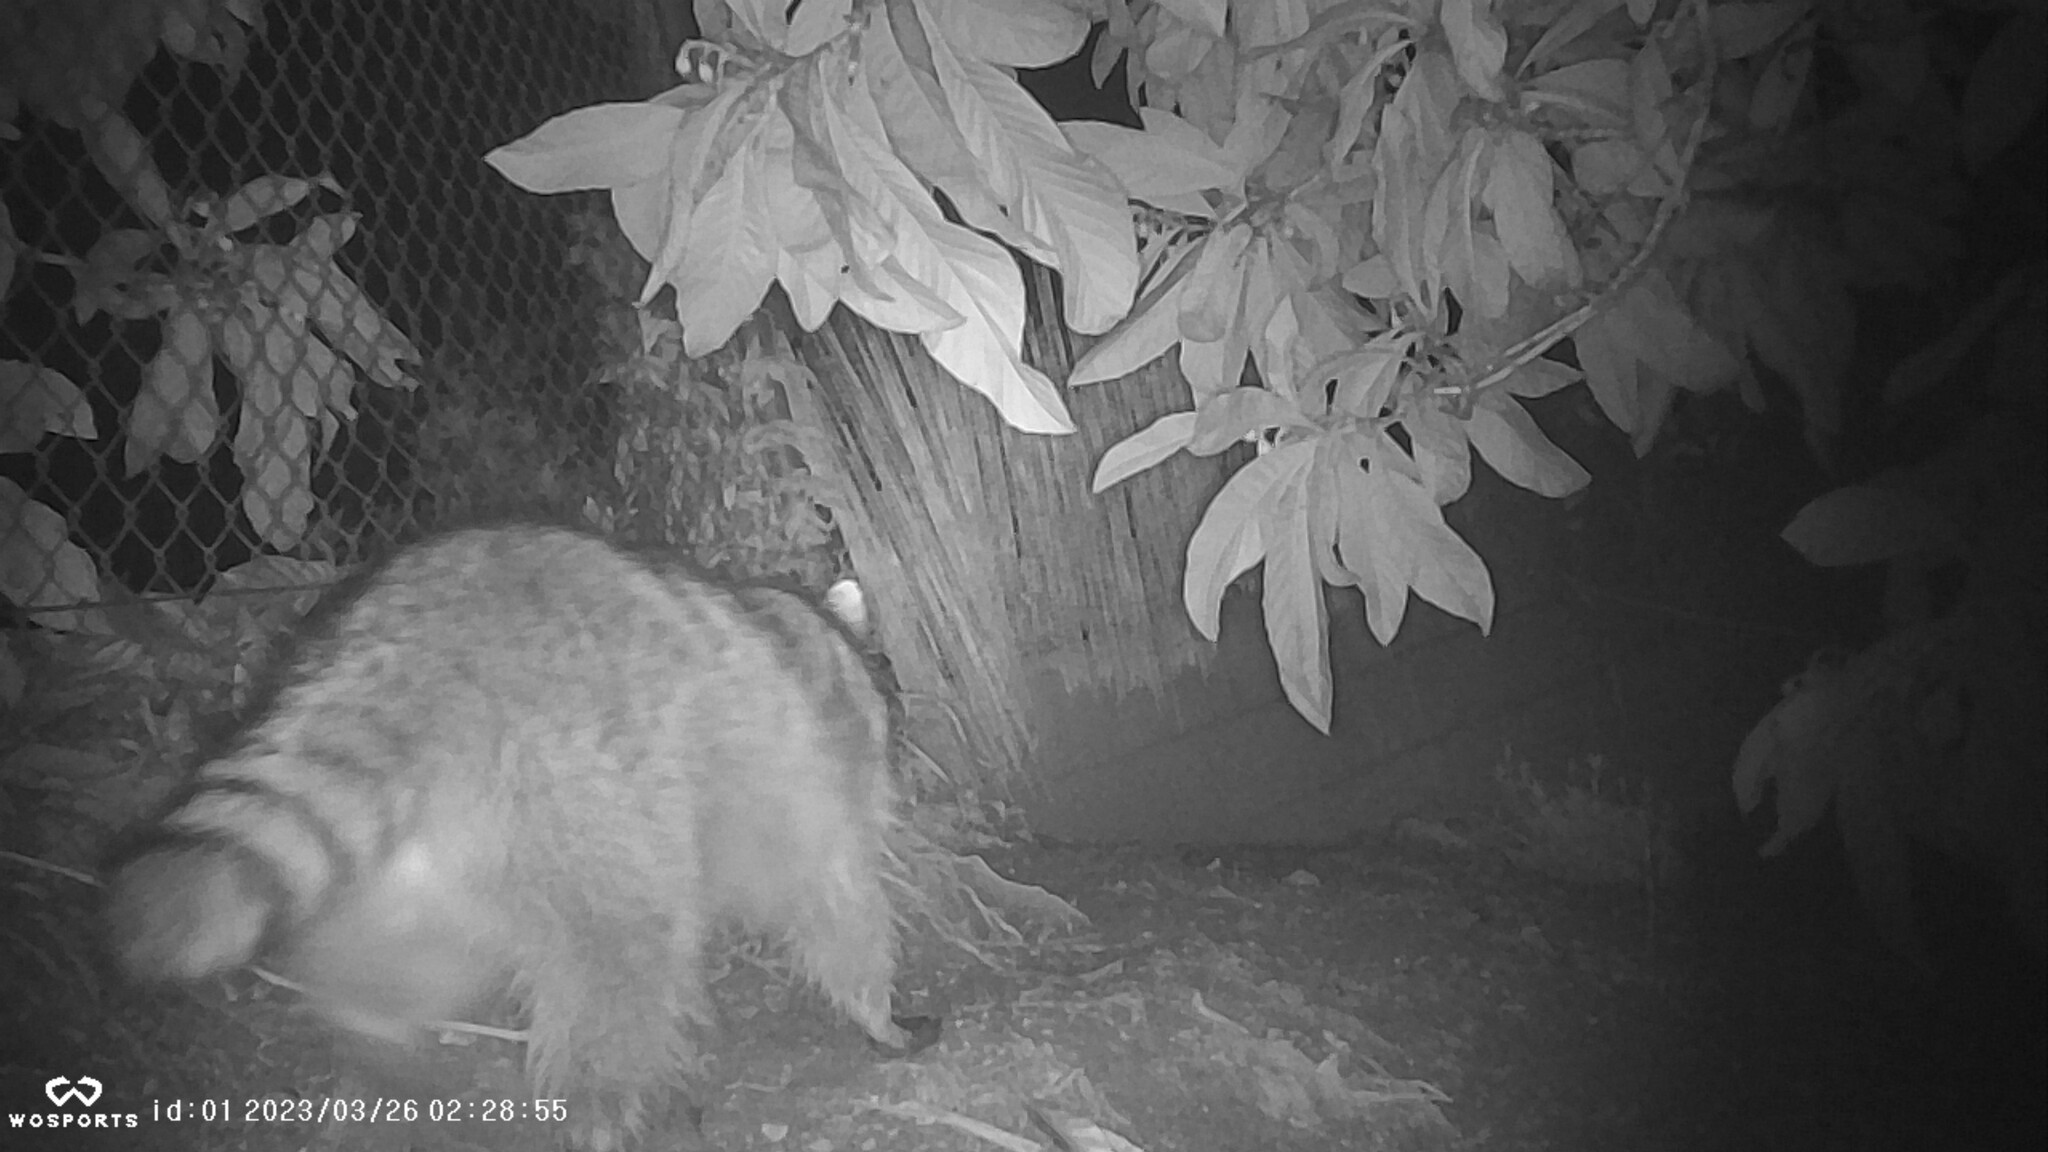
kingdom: Animalia
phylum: Chordata
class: Mammalia
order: Carnivora
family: Procyonidae
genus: Procyon
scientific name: Procyon lotor
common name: Raccoon
